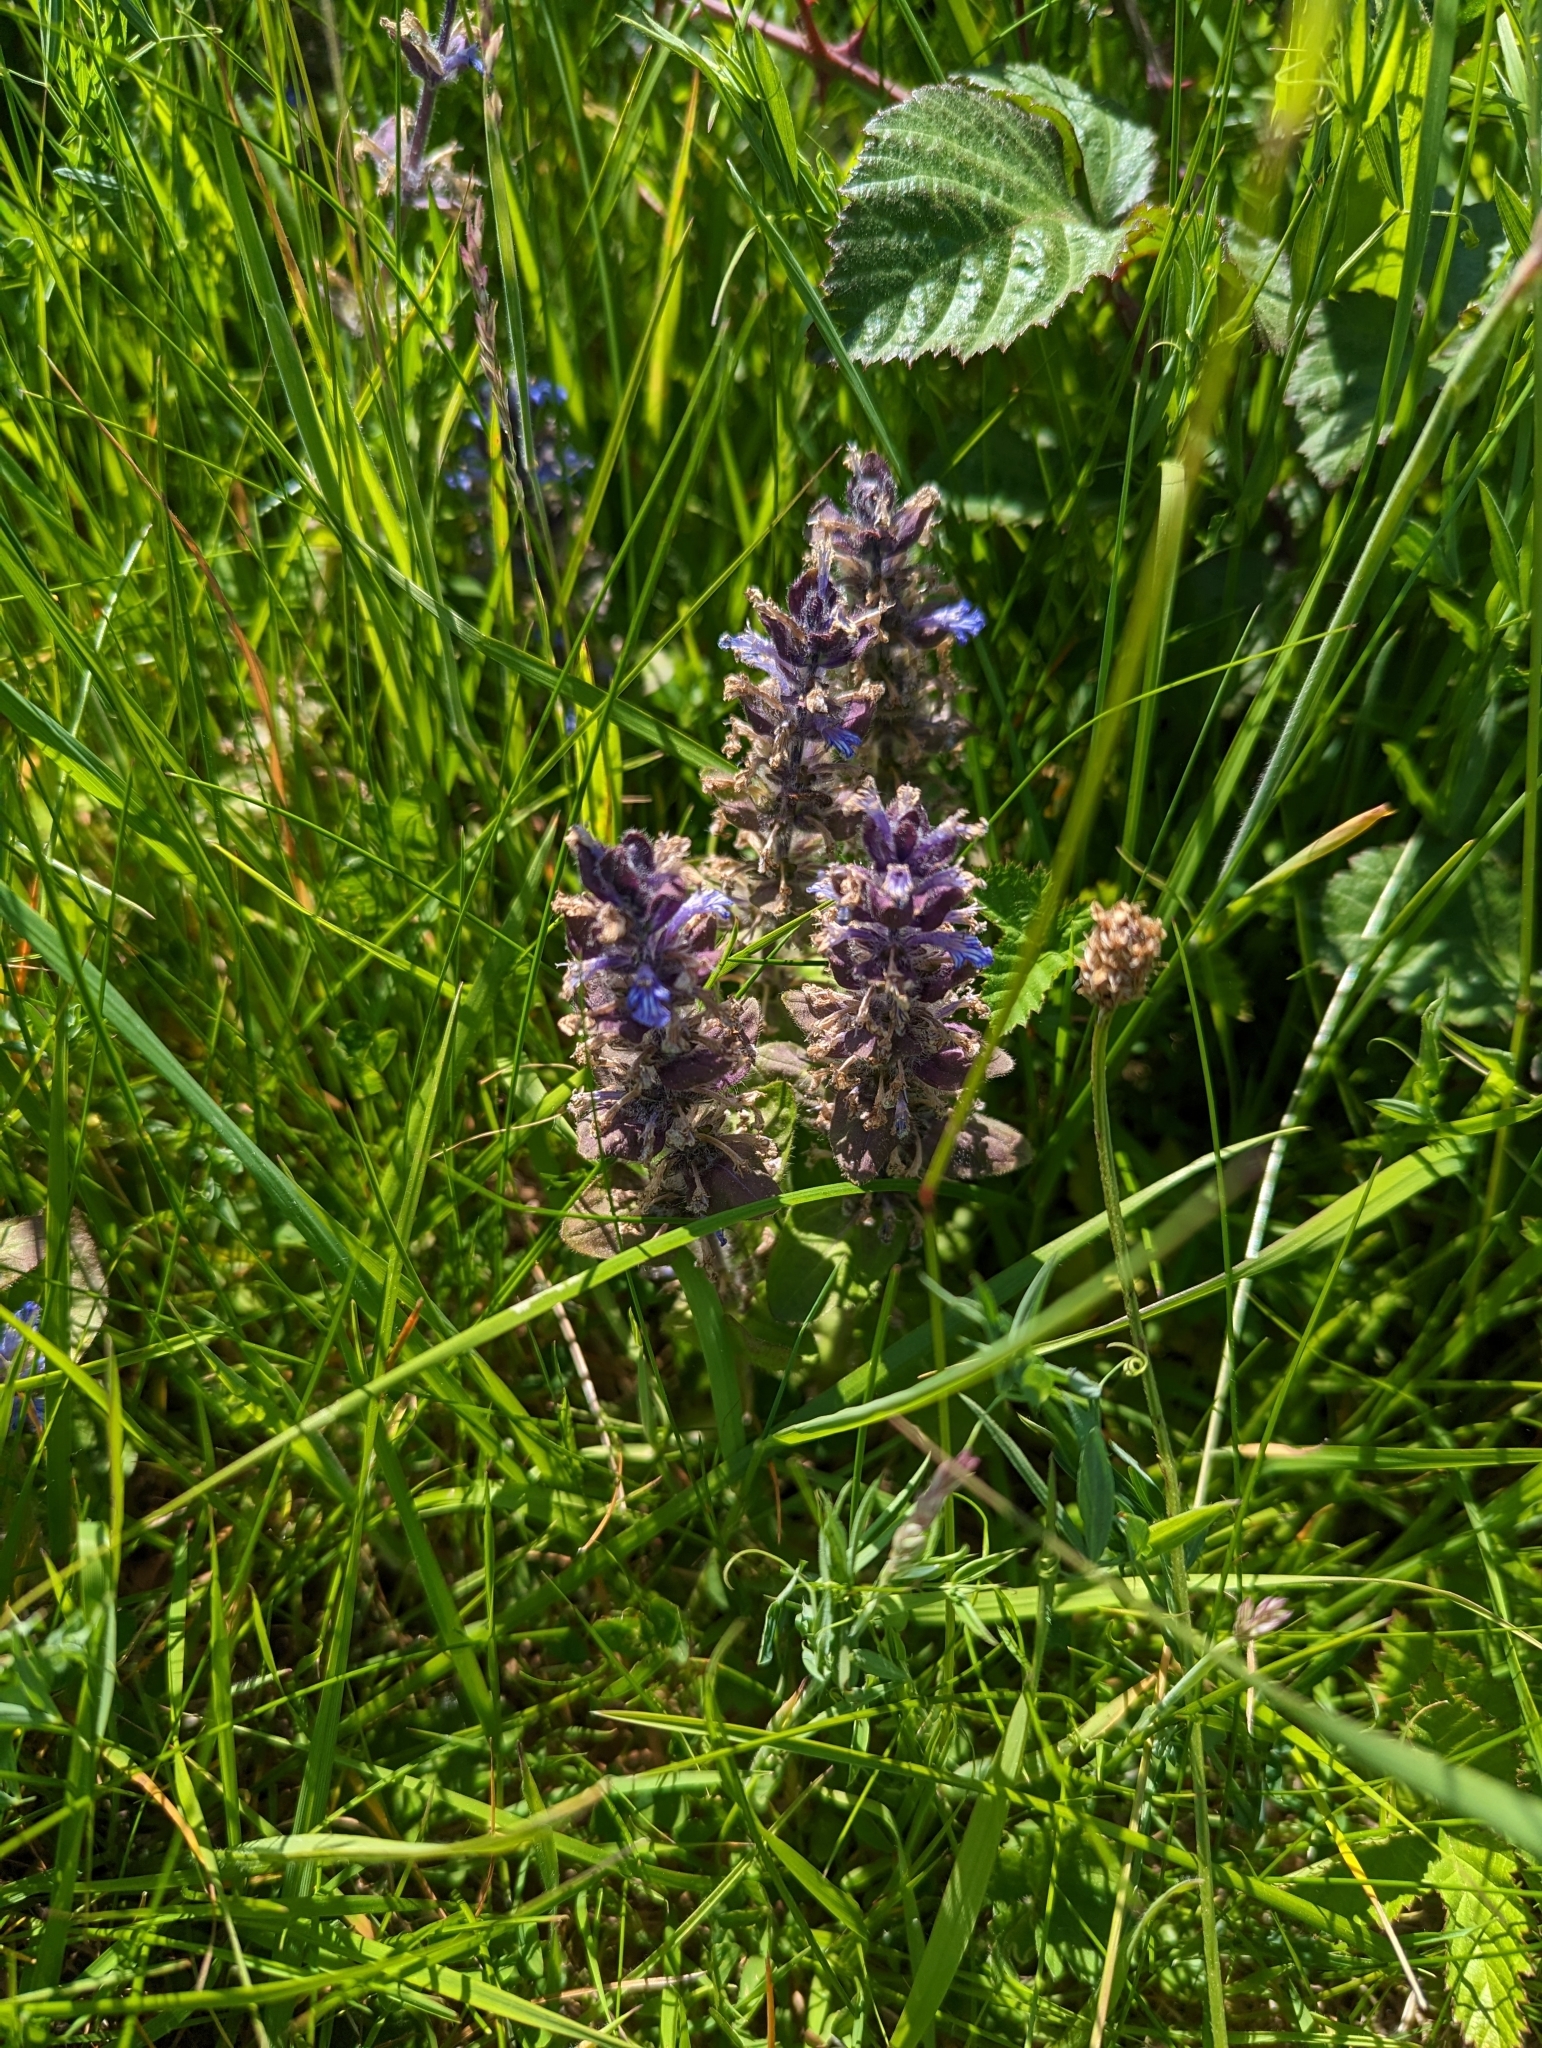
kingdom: Plantae
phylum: Tracheophyta
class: Magnoliopsida
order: Lamiales
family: Lamiaceae
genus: Ajuga
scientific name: Ajuga reptans
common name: Bugle
